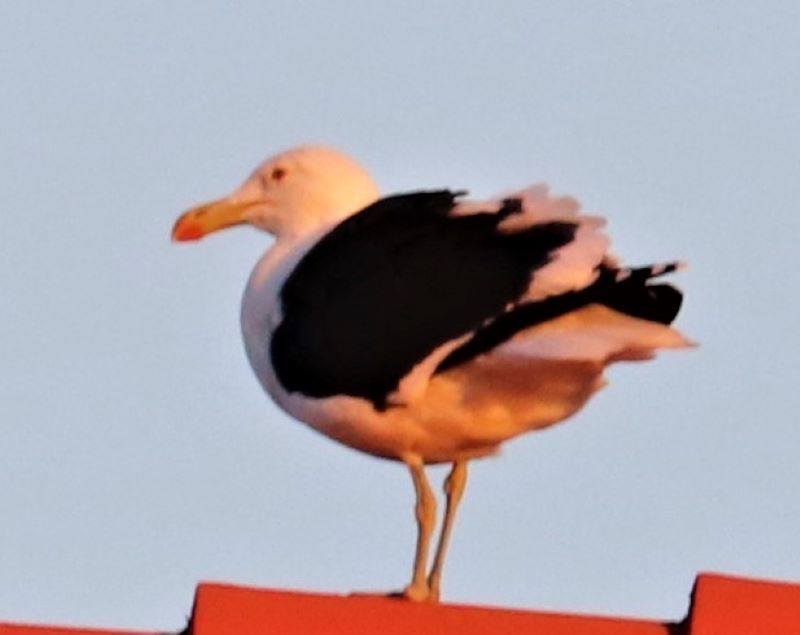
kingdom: Animalia
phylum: Chordata
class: Aves
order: Charadriiformes
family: Laridae
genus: Larus
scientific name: Larus dominicanus
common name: Kelp gull
